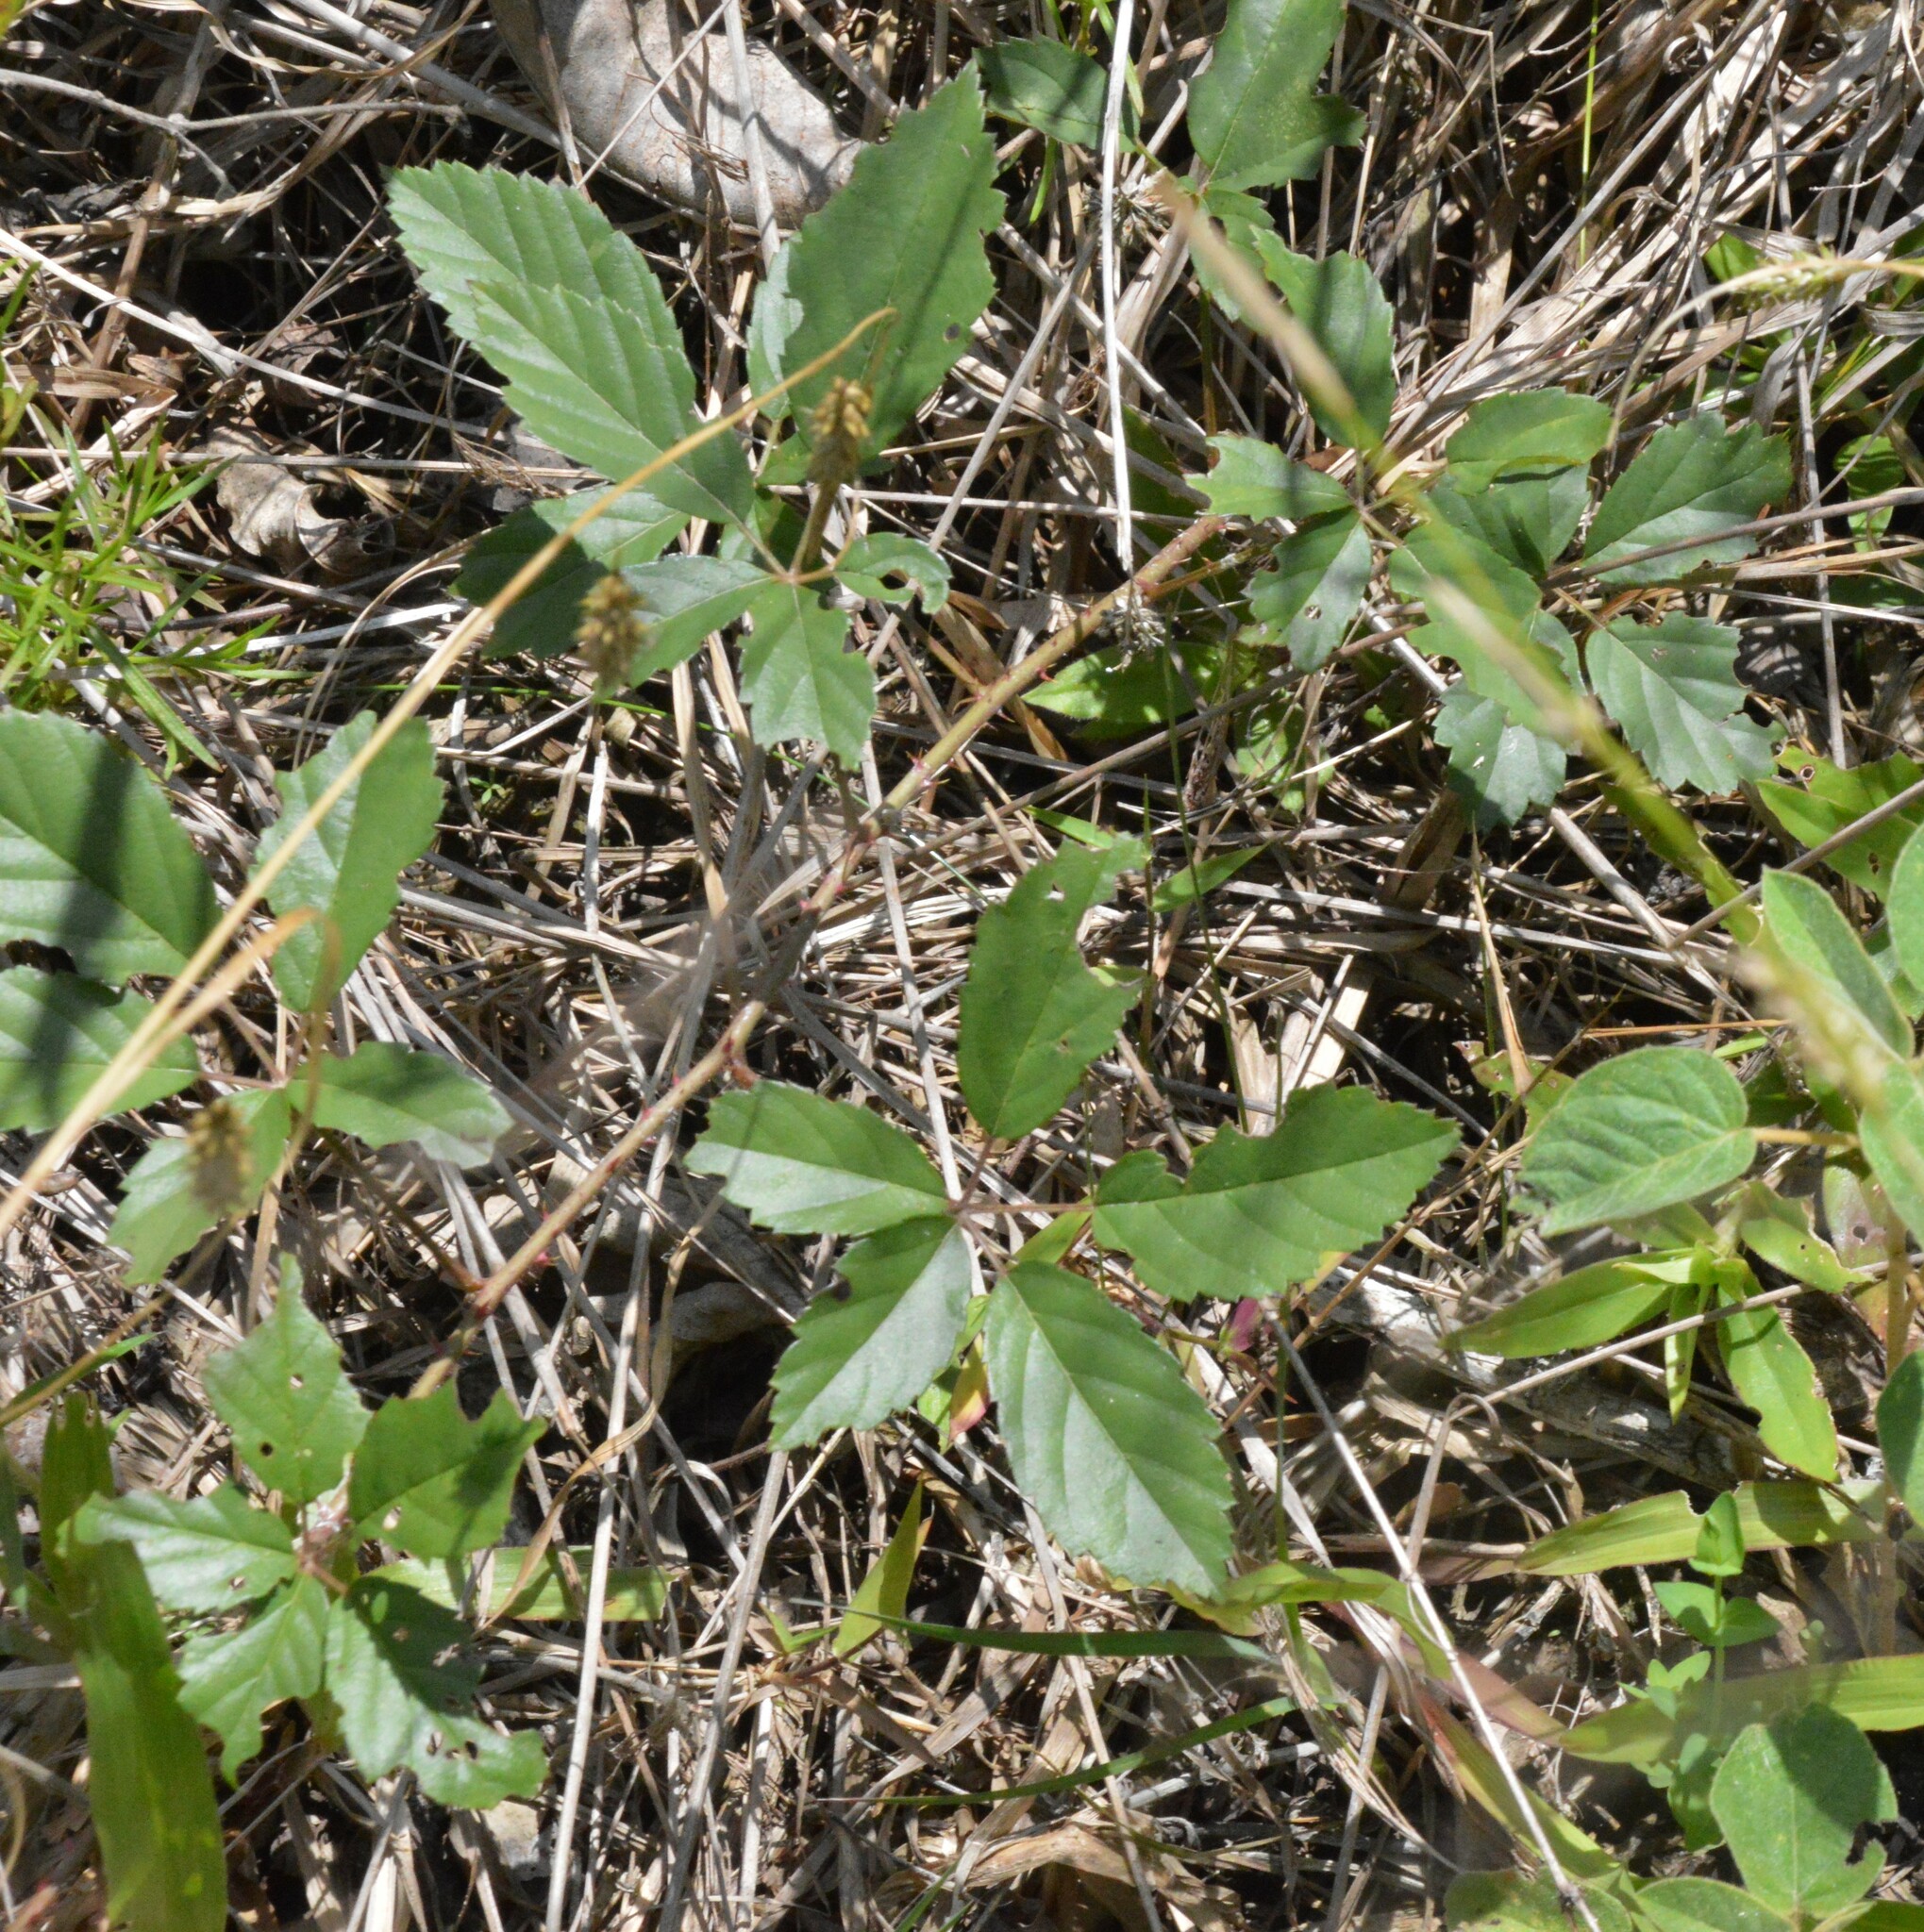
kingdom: Plantae
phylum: Tracheophyta
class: Magnoliopsida
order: Rosales
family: Rosaceae
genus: Rubus
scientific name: Rubus trivialis
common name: Southern dewberry
